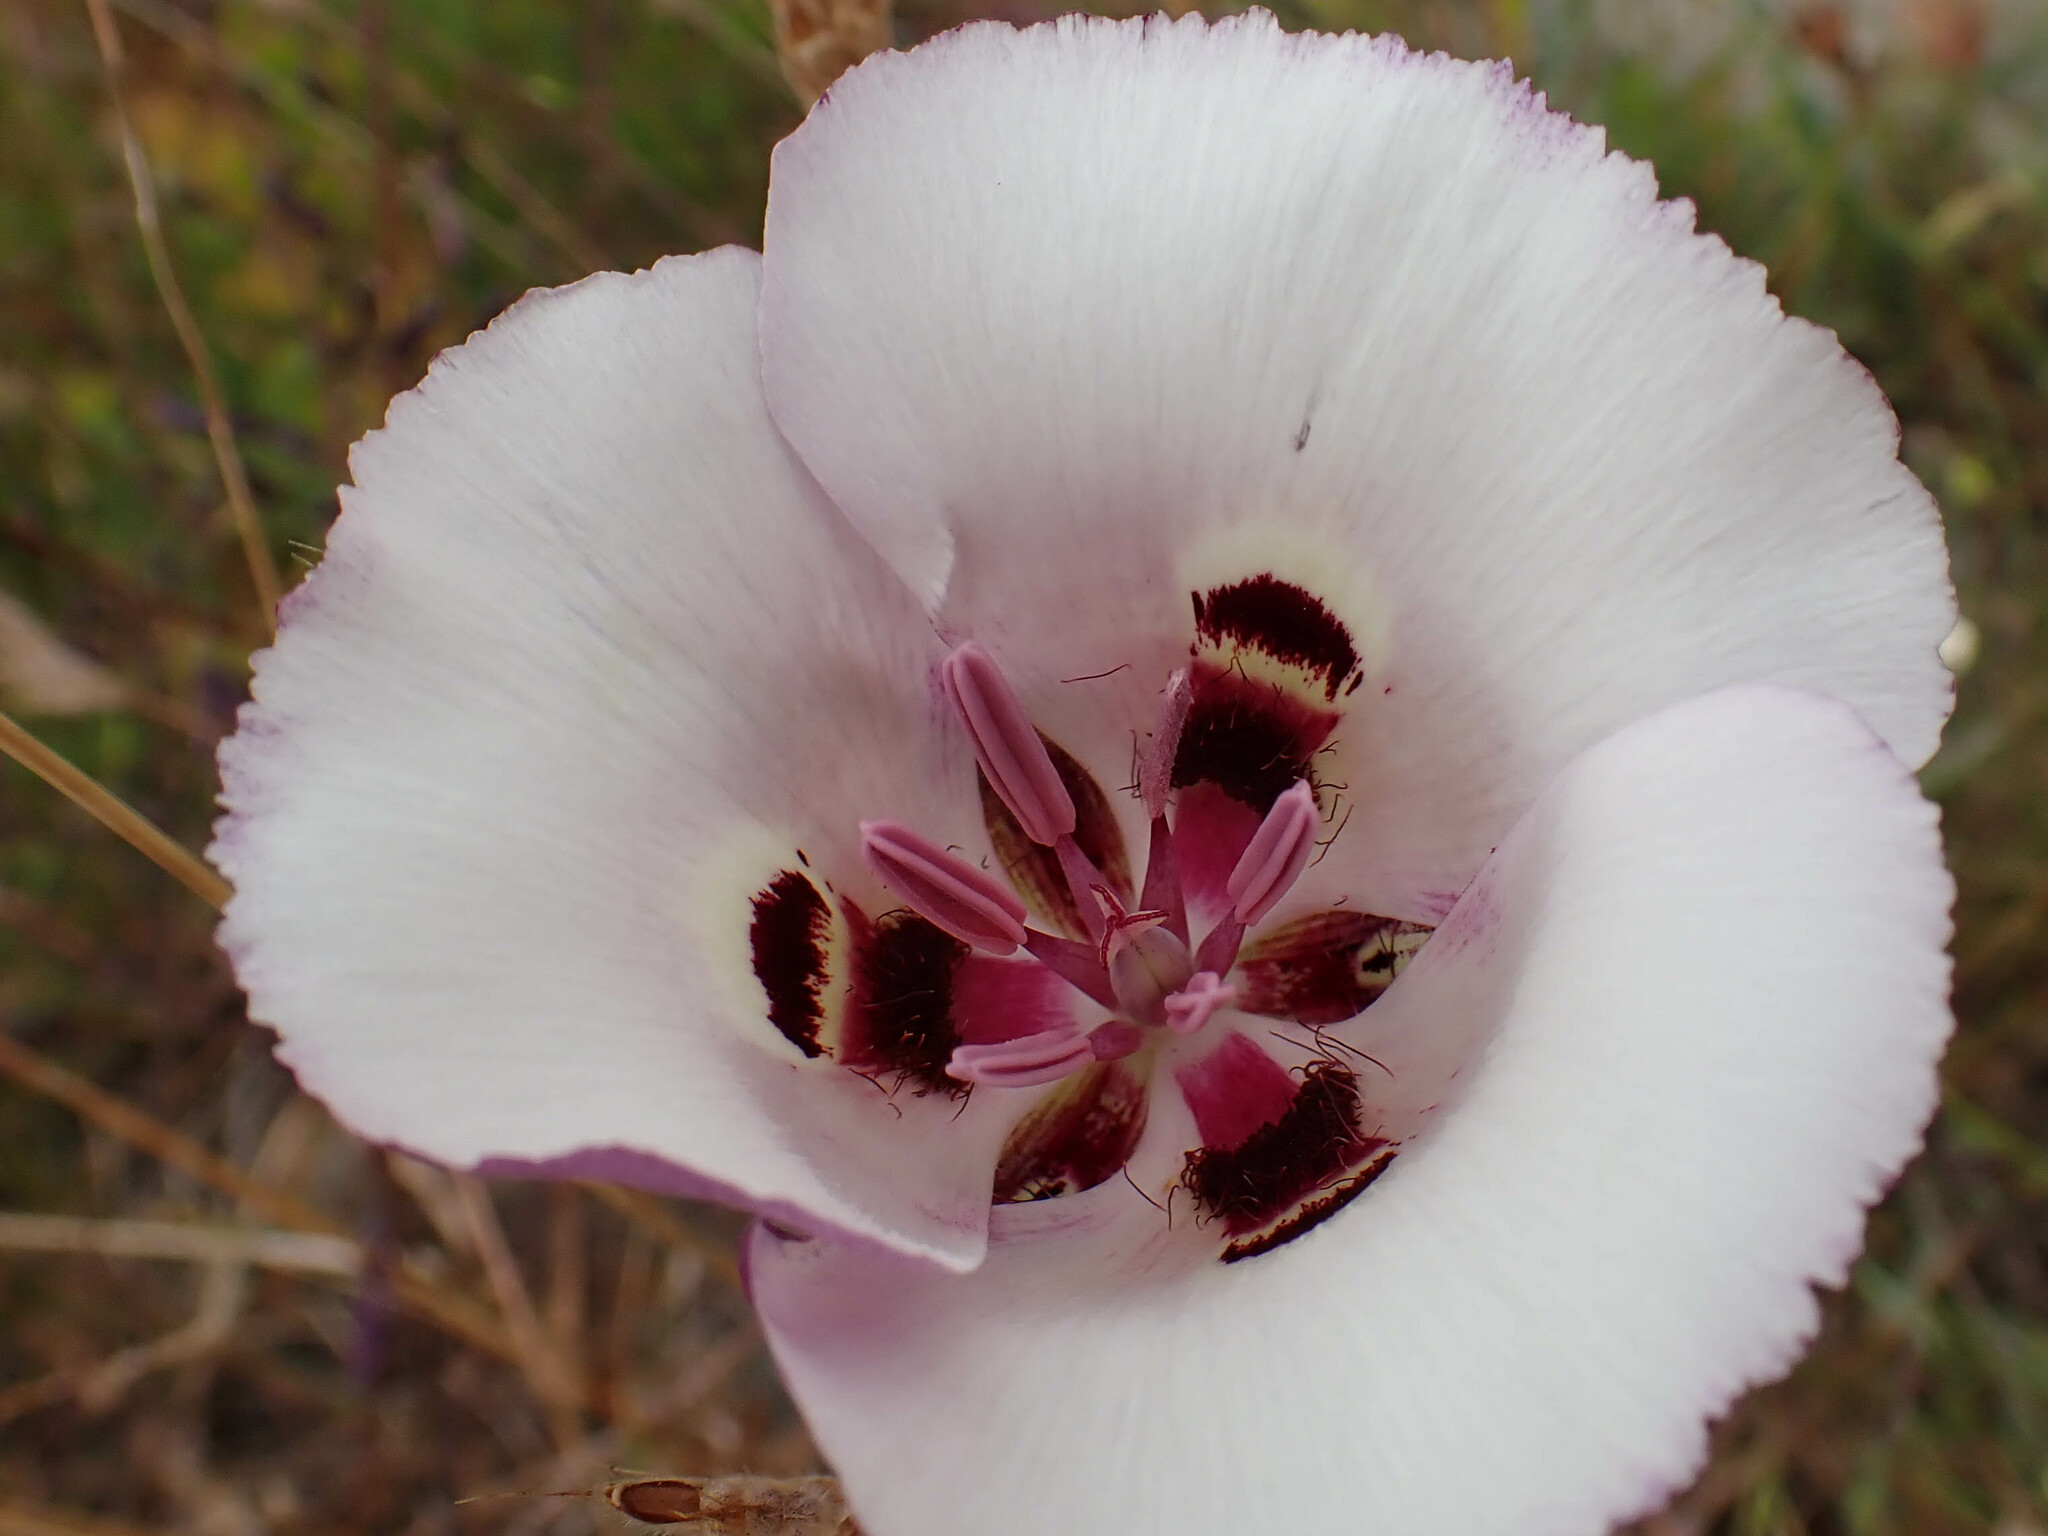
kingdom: Plantae
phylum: Tracheophyta
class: Liliopsida
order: Liliales
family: Liliaceae
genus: Calochortus
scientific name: Calochortus argillosus
